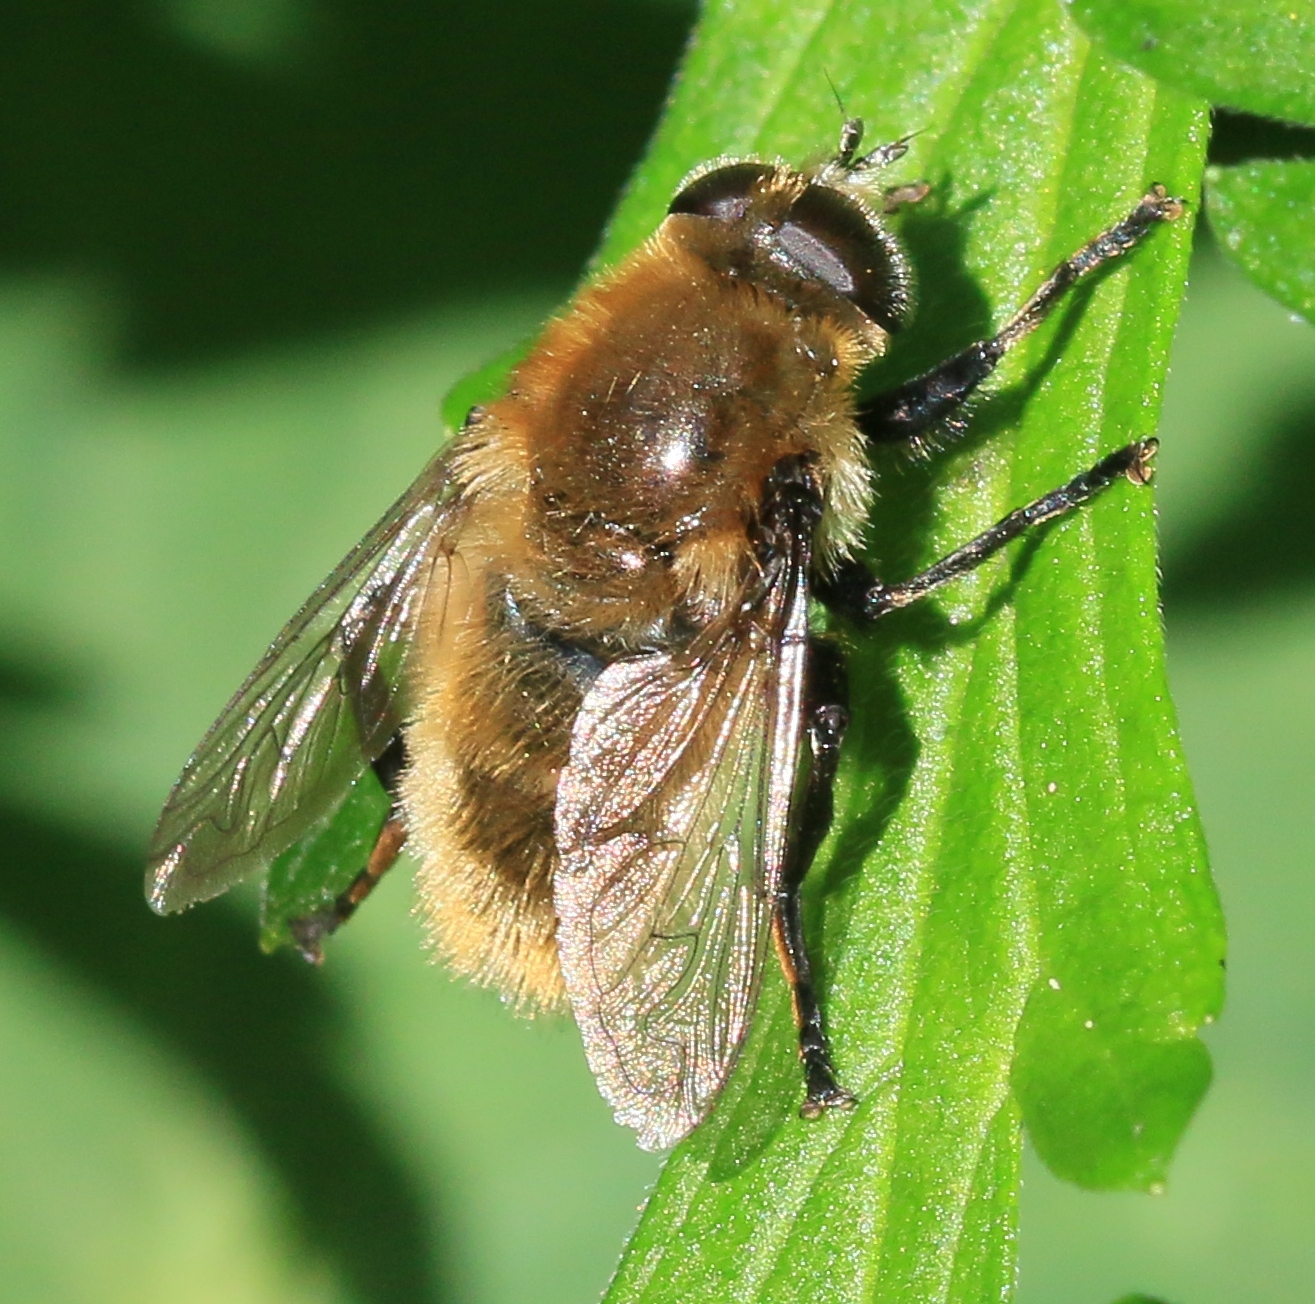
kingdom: Animalia
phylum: Arthropoda
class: Insecta
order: Diptera
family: Syrphidae
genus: Merodon
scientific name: Merodon equestris
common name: Greater bulb-fly
